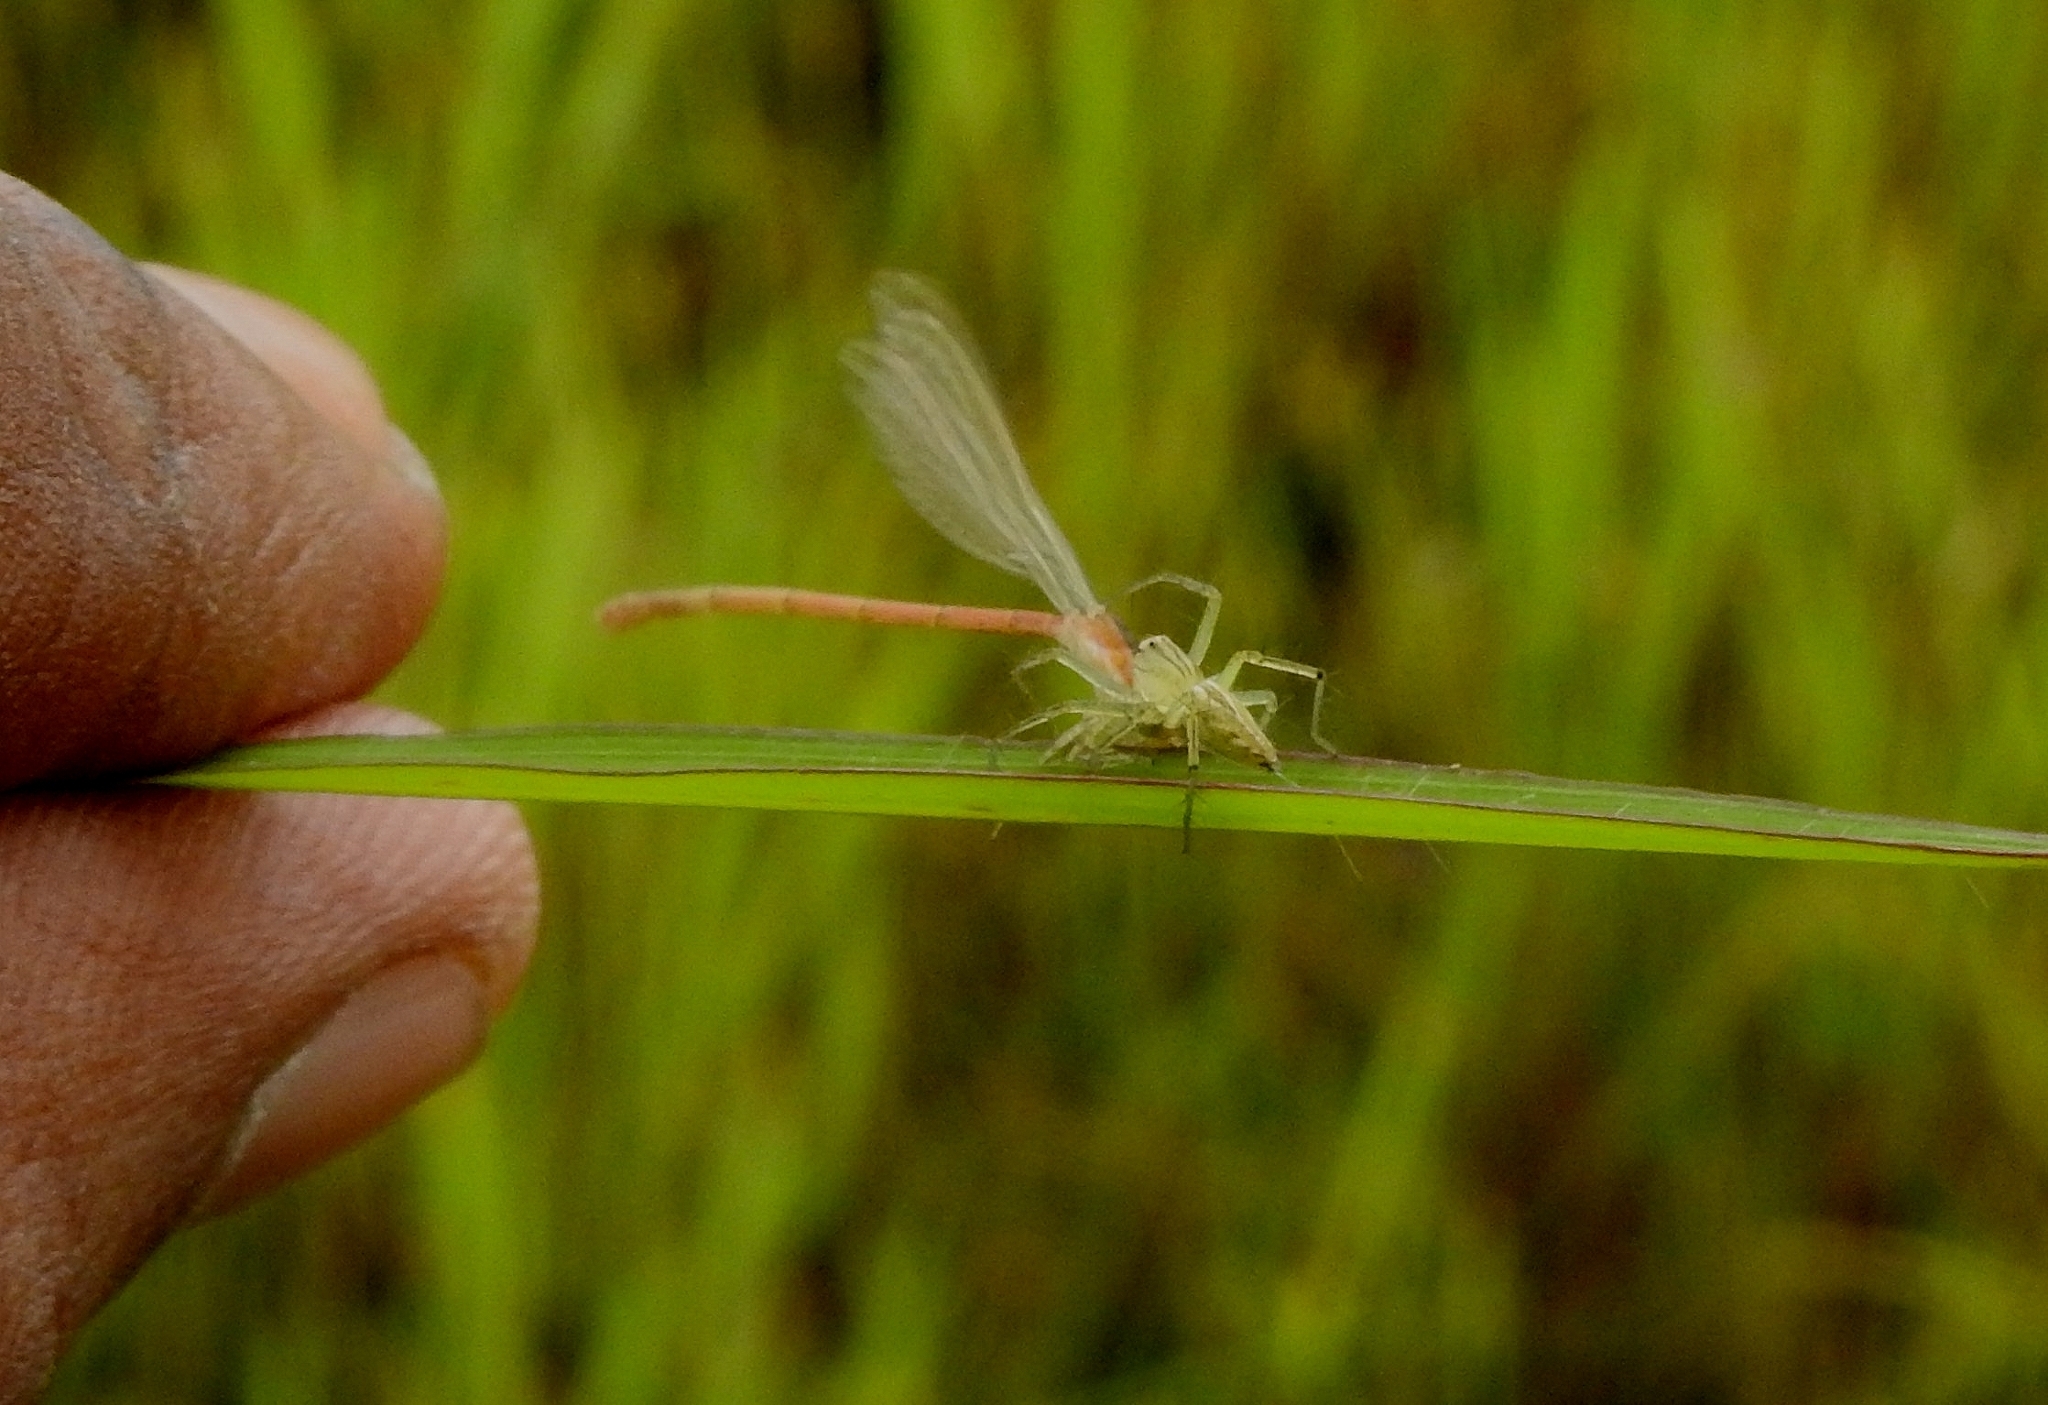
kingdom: Animalia
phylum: Arthropoda
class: Insecta
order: Odonata
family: Coenagrionidae
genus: Agriocnemis
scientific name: Agriocnemis pygmaea
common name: Pygmy wisp
